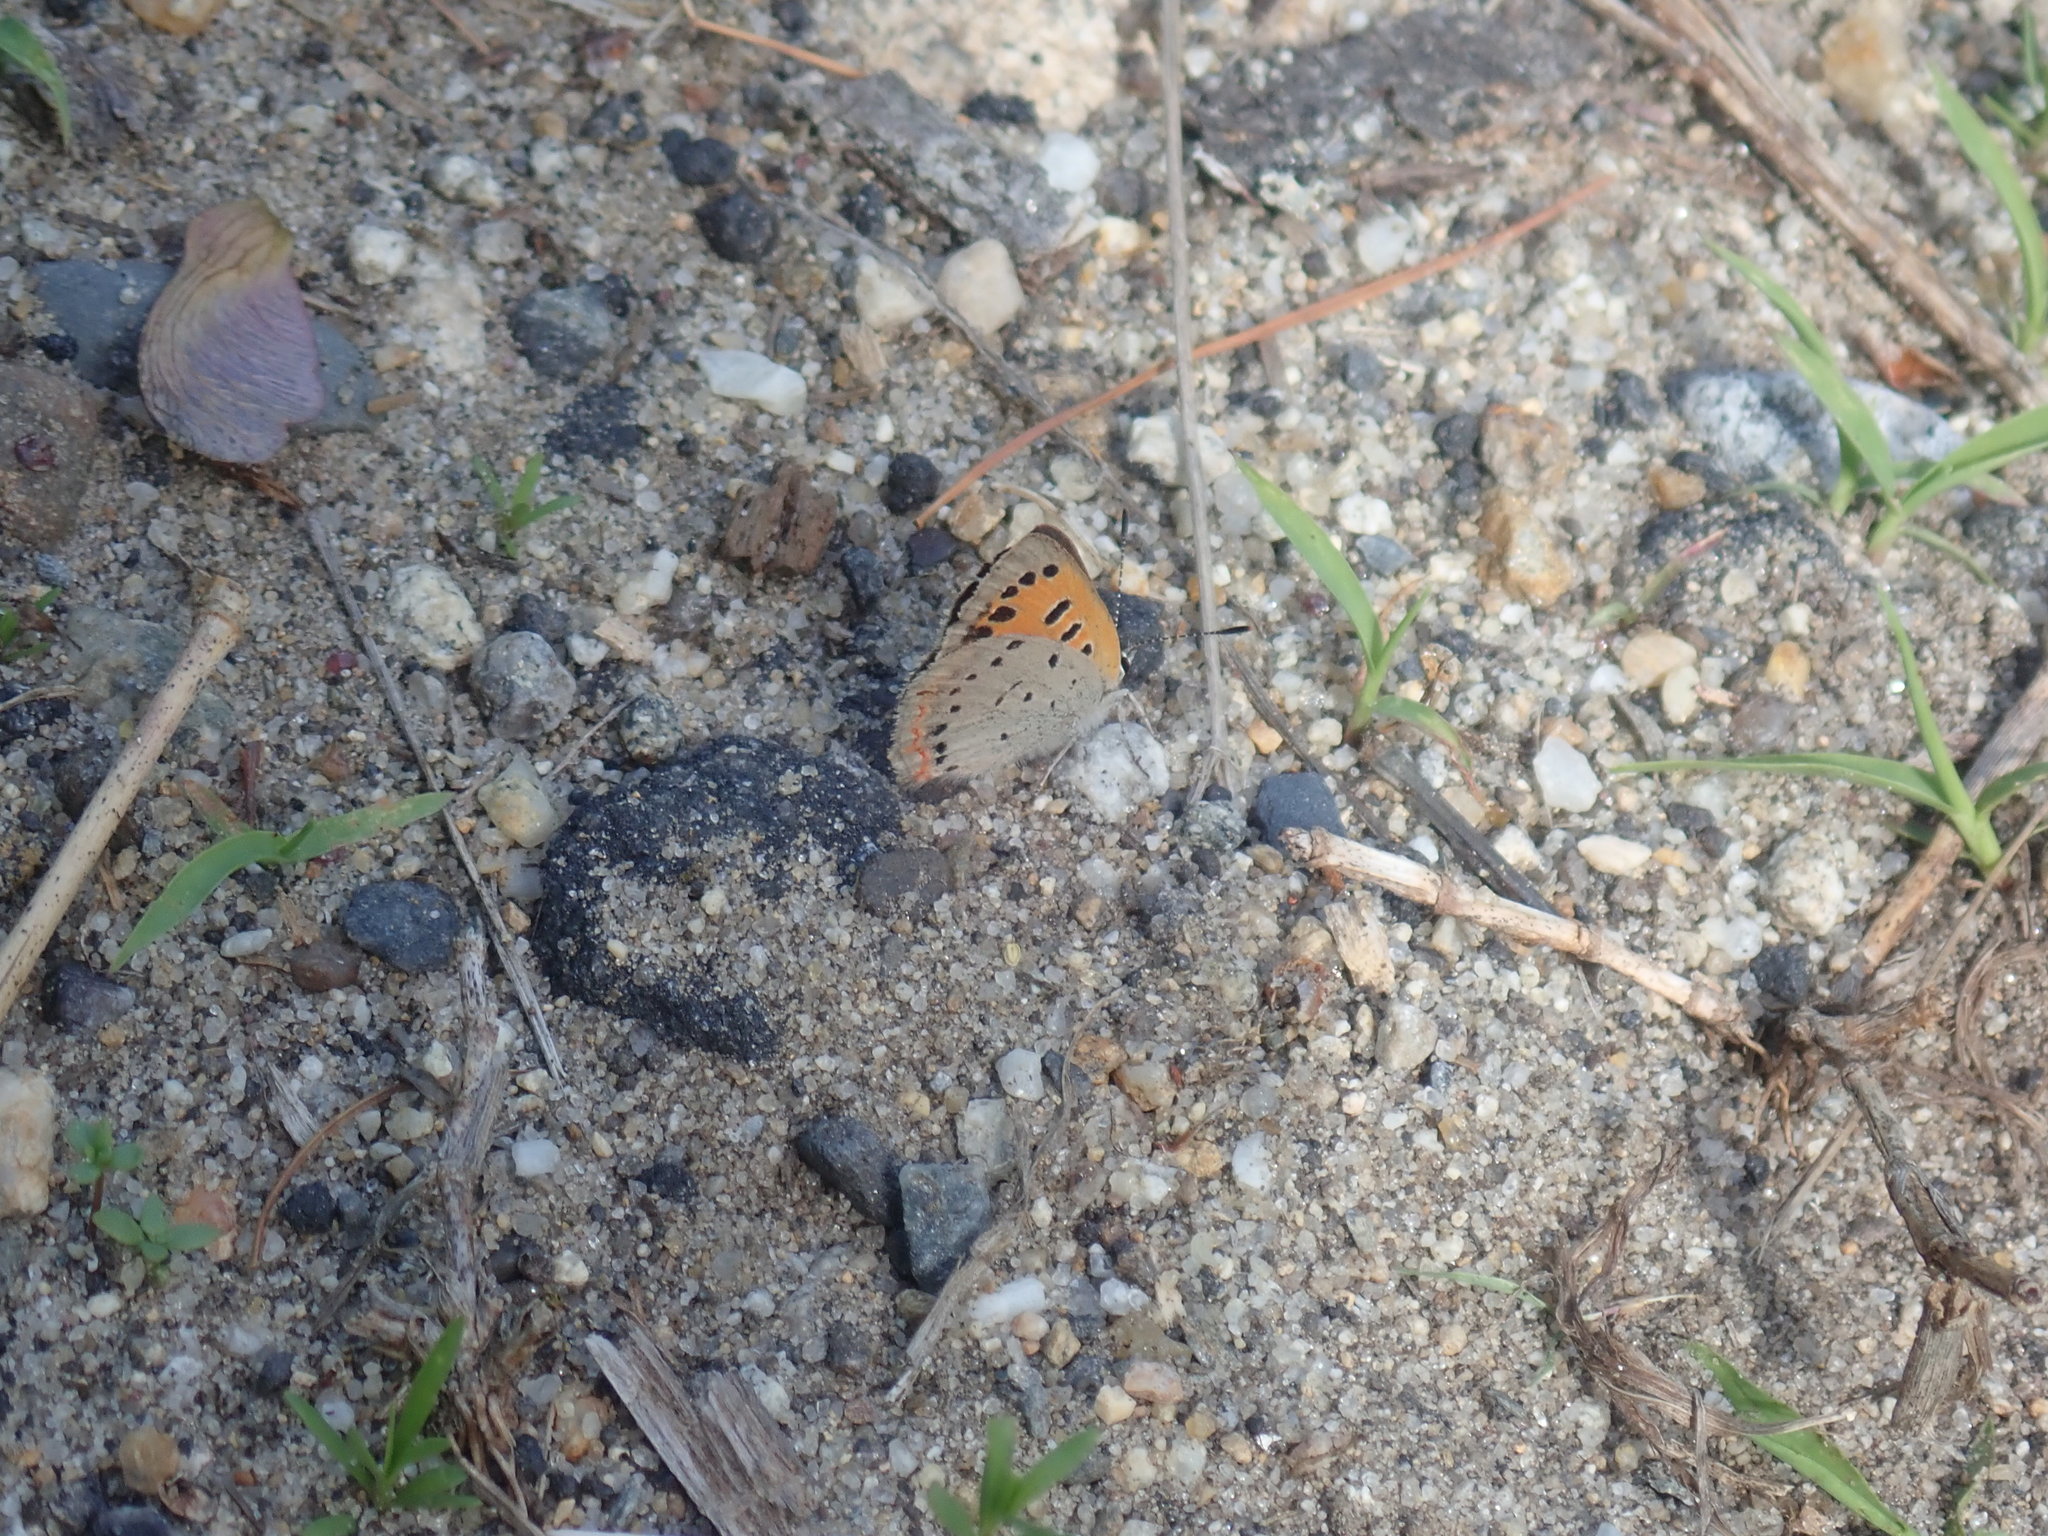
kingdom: Animalia
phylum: Arthropoda
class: Insecta
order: Lepidoptera
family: Lycaenidae
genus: Lycaena
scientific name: Lycaena hypophlaeas
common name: American copper
